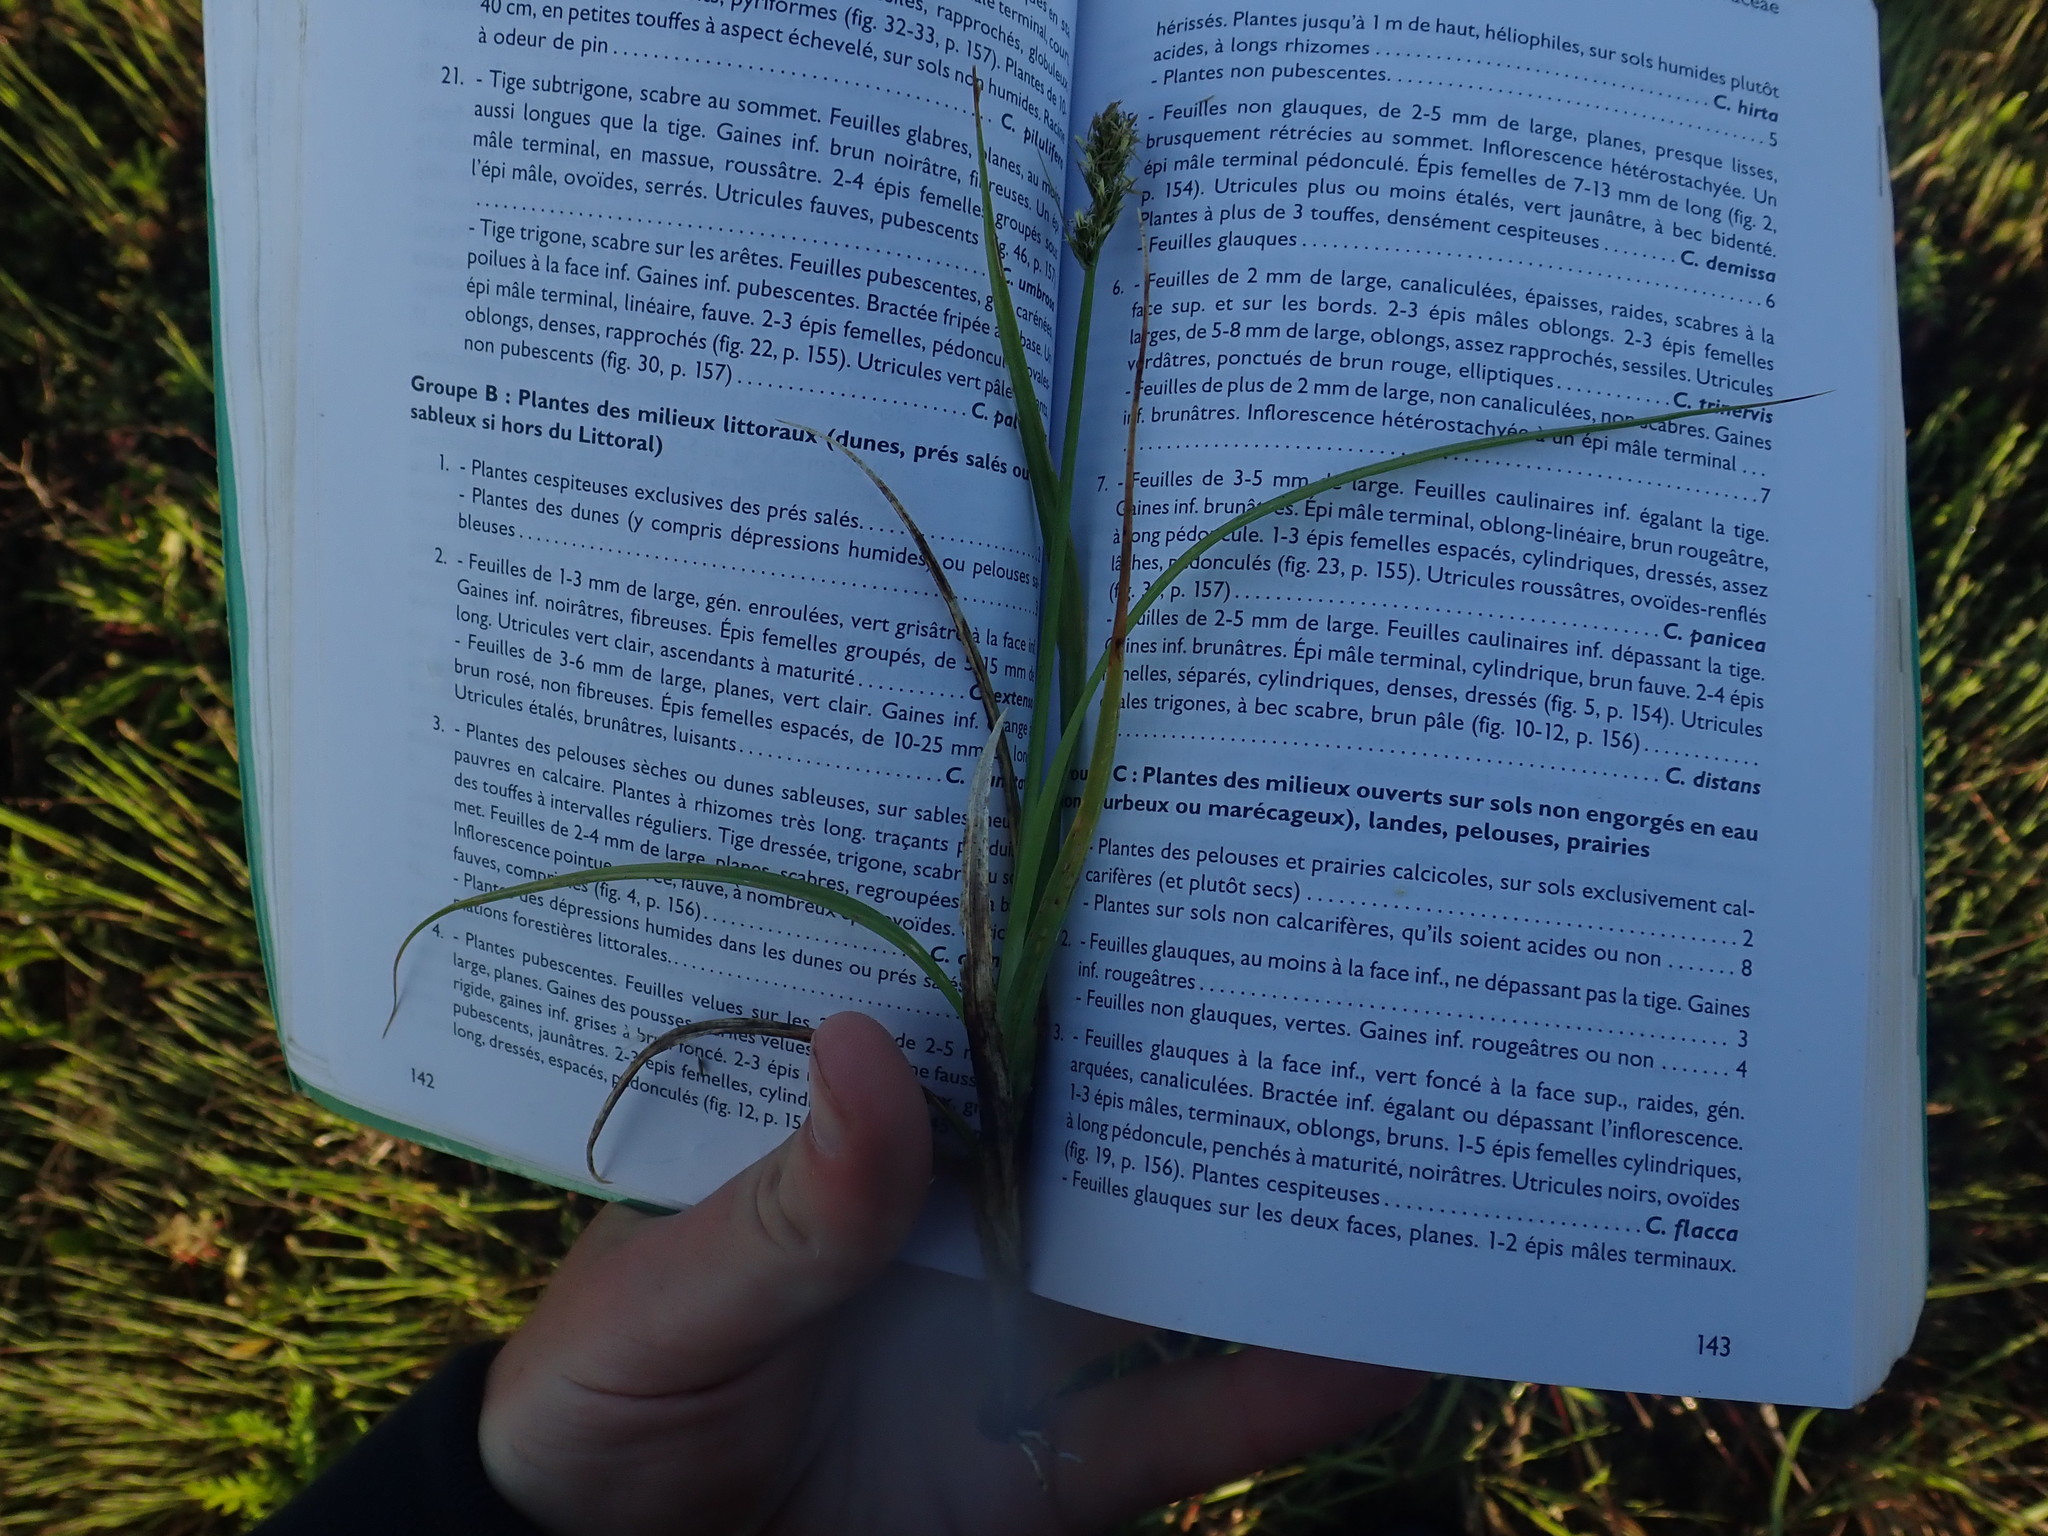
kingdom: Plantae
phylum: Tracheophyta
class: Liliopsida
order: Poales
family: Cyperaceae
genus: Carex
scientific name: Carex otrubae
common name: False fox-sedge
